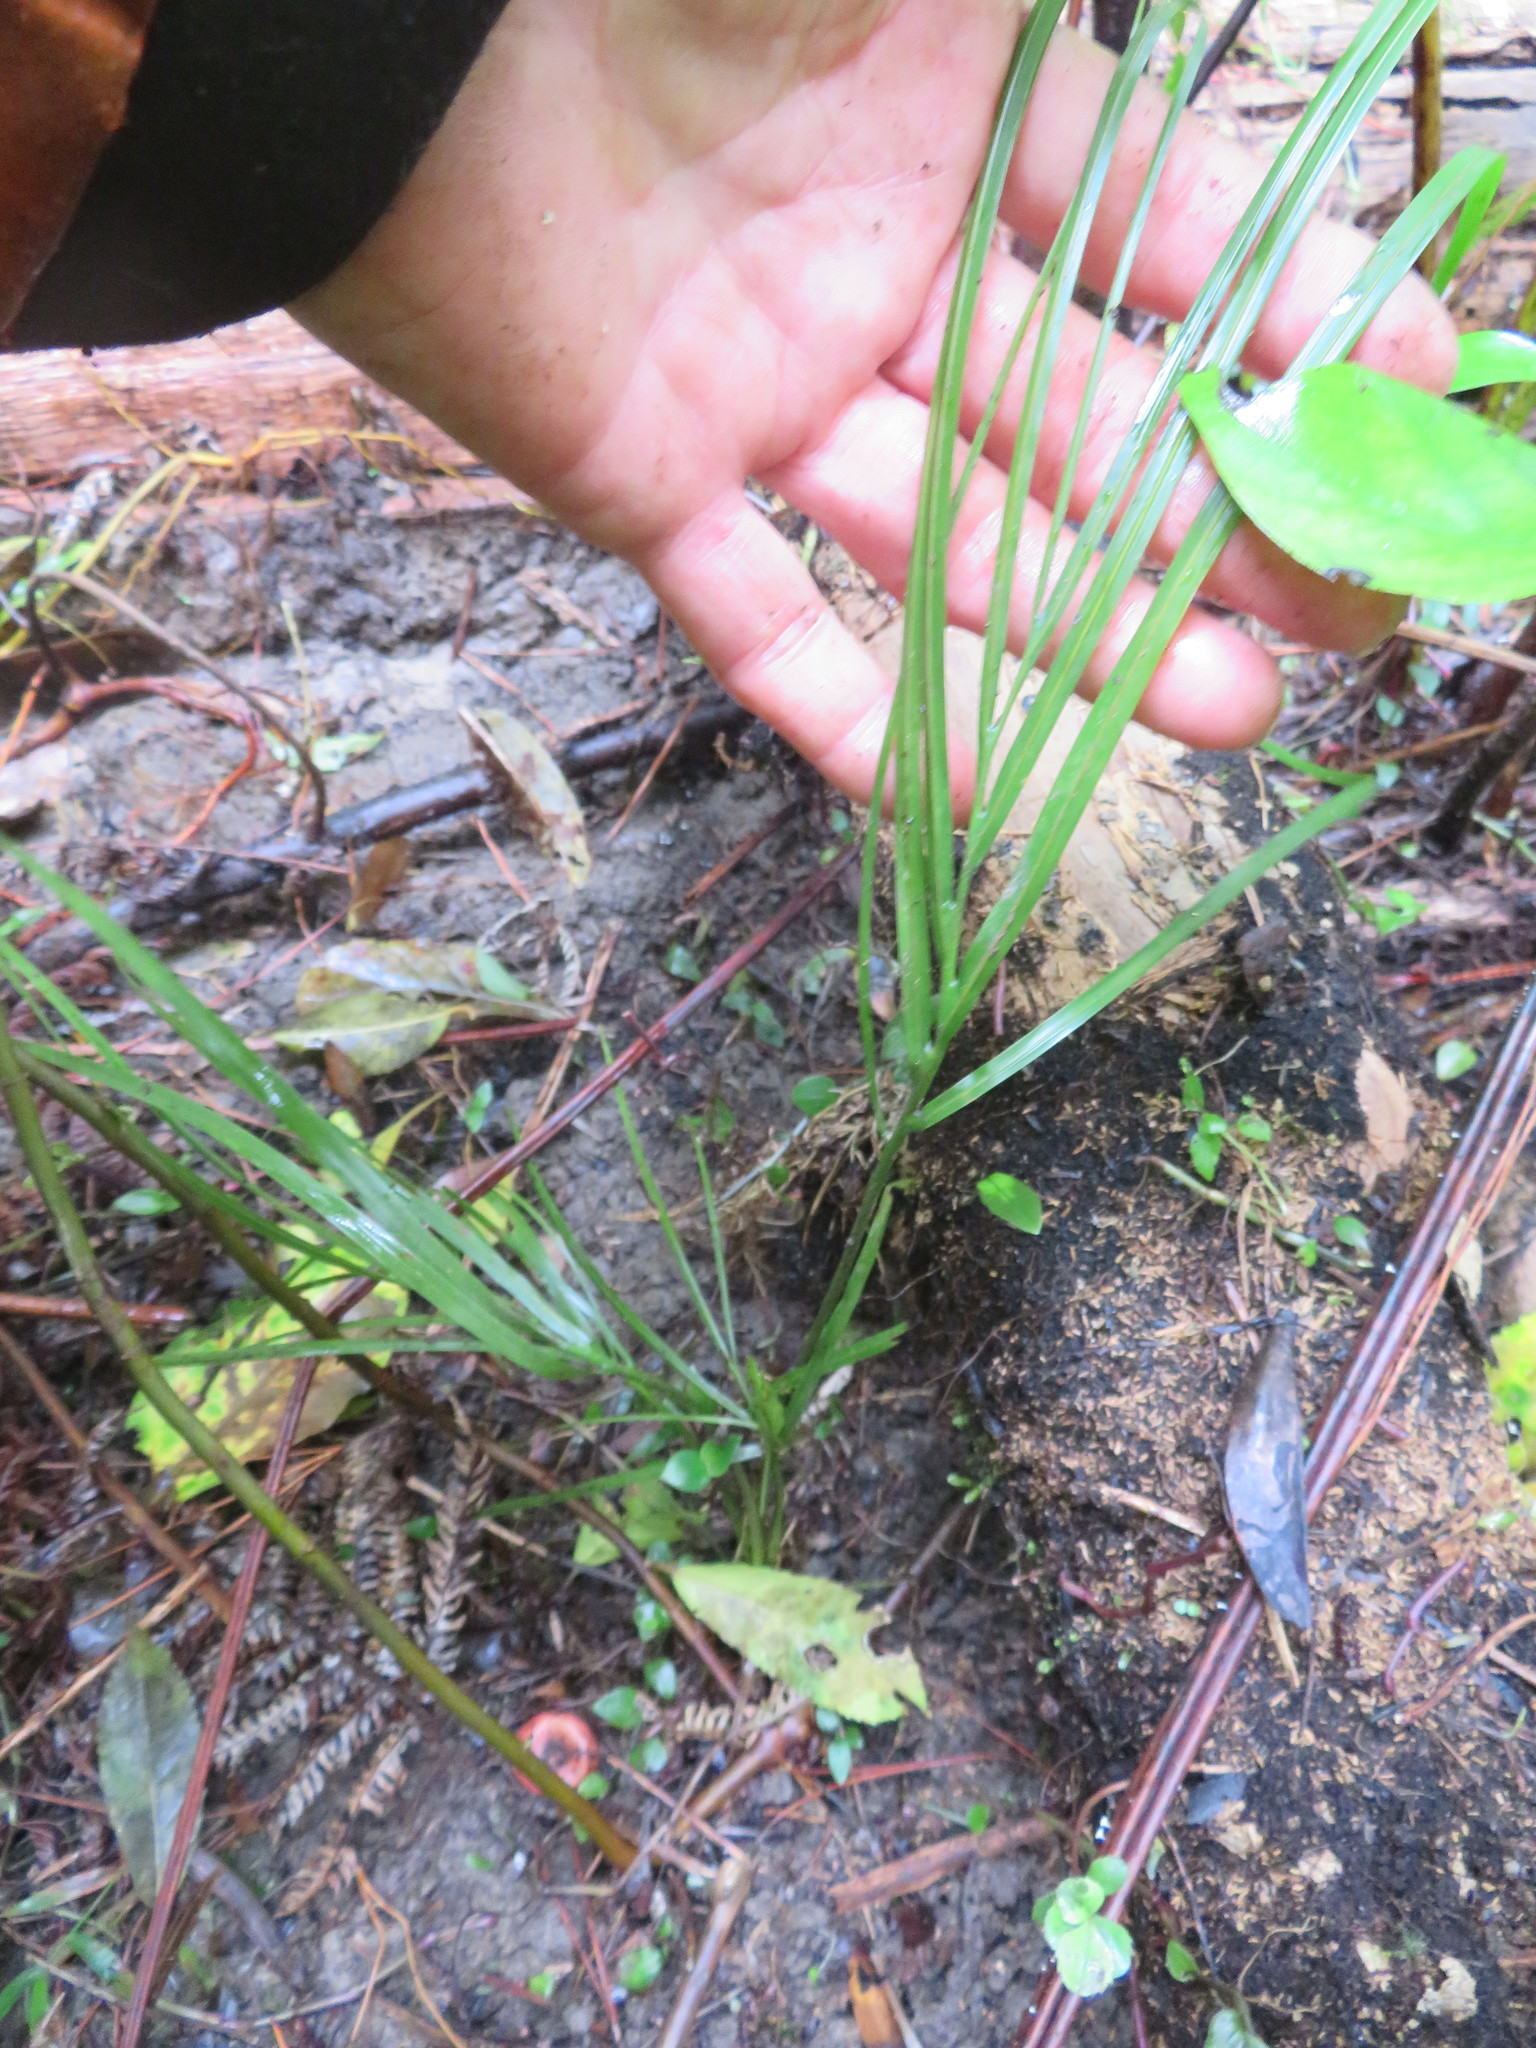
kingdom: Plantae
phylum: Tracheophyta
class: Liliopsida
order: Arecales
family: Arecaceae
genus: Rhopalostylis
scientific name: Rhopalostylis sapida
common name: Feather-duster palm
